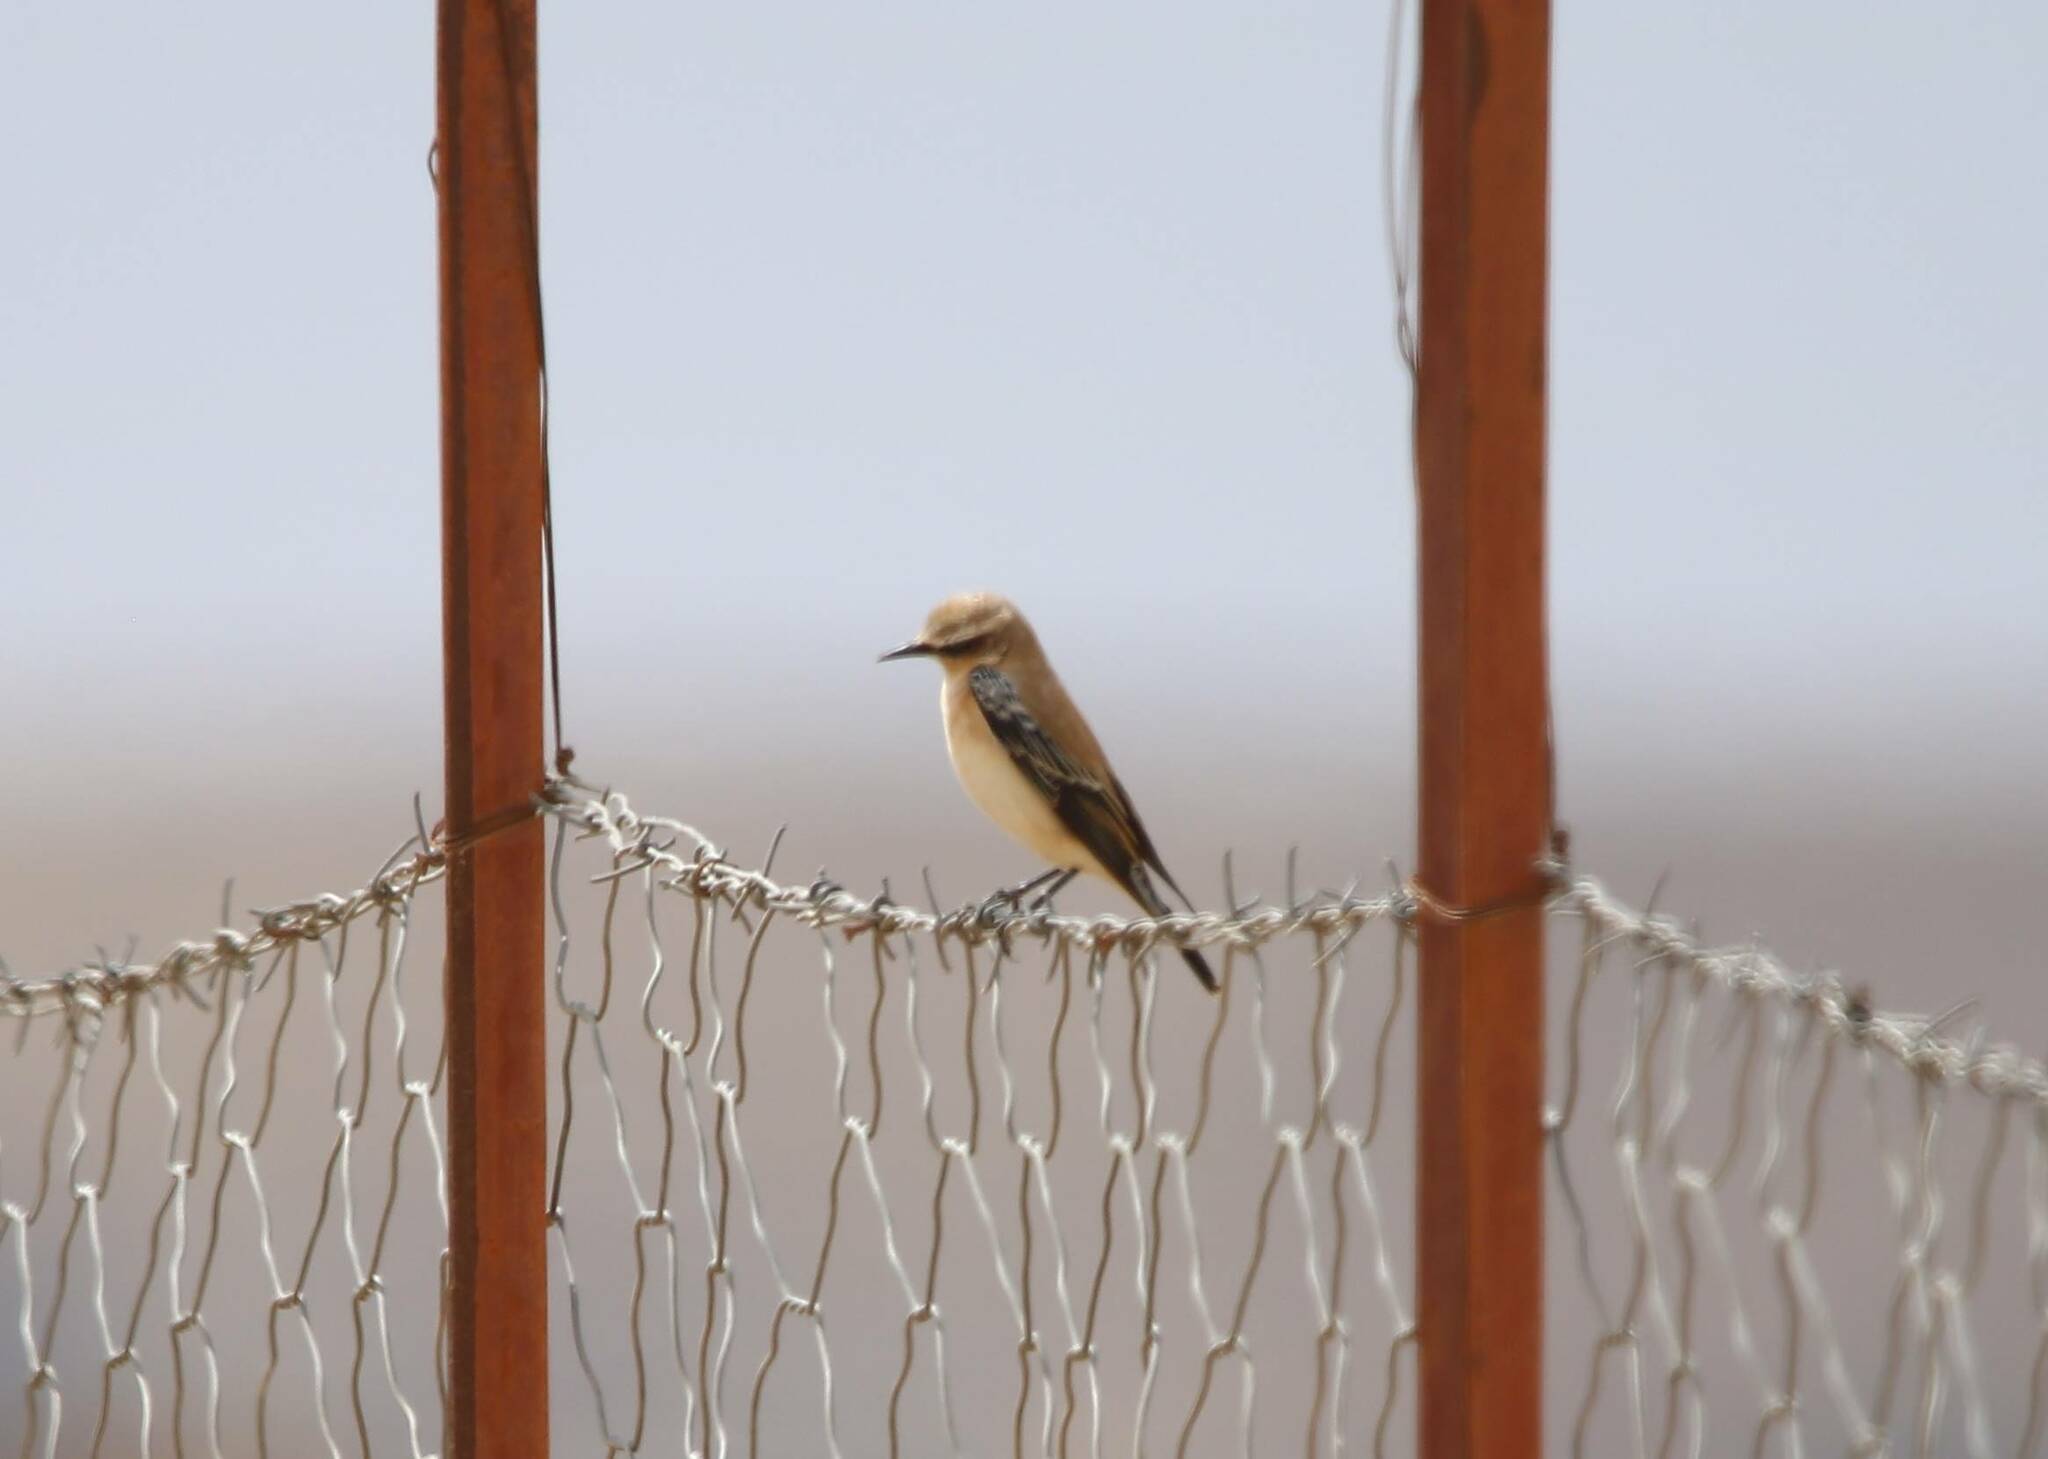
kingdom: Animalia
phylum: Chordata
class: Aves
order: Passeriformes
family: Muscicapidae
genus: Oenanthe
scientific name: Oenanthe oenanthe
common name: Northern wheatear
